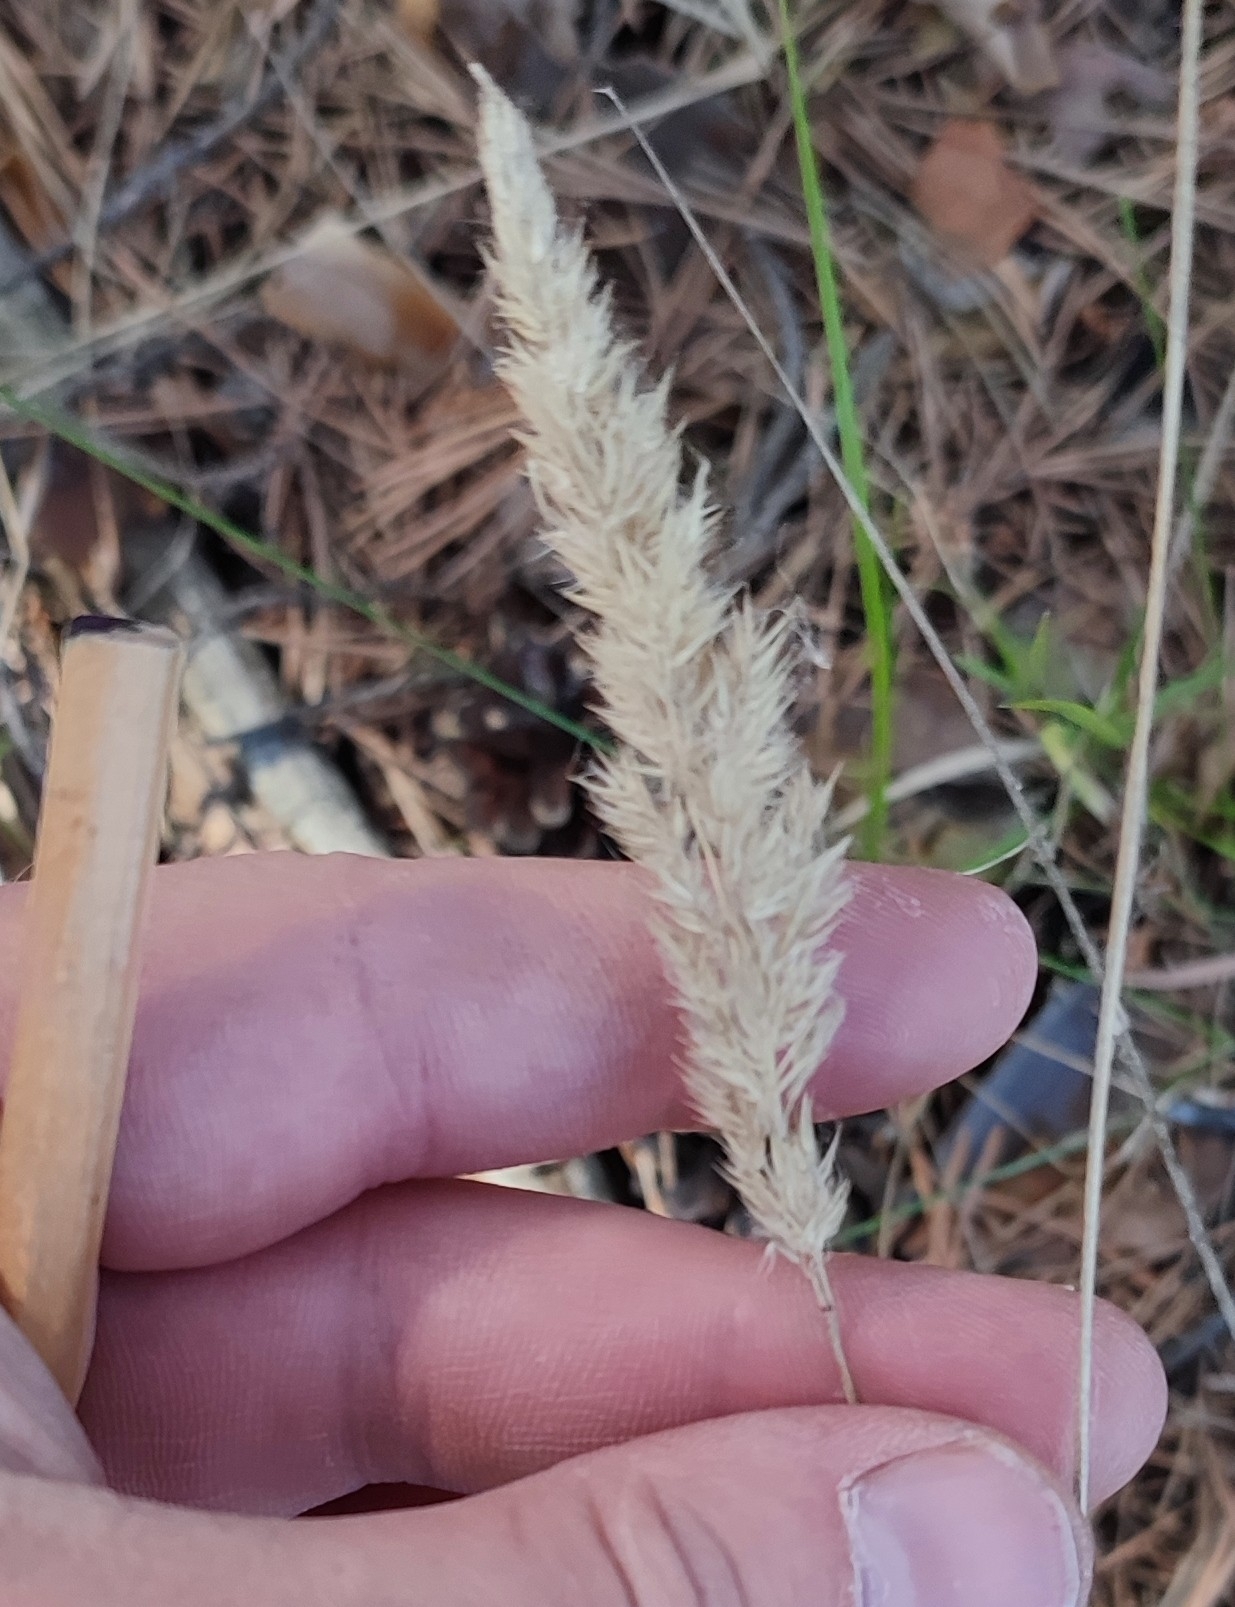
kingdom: Plantae
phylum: Tracheophyta
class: Liliopsida
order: Poales
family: Poaceae
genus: Calamagrostis
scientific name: Calamagrostis epigejos
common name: Wood small-reed
